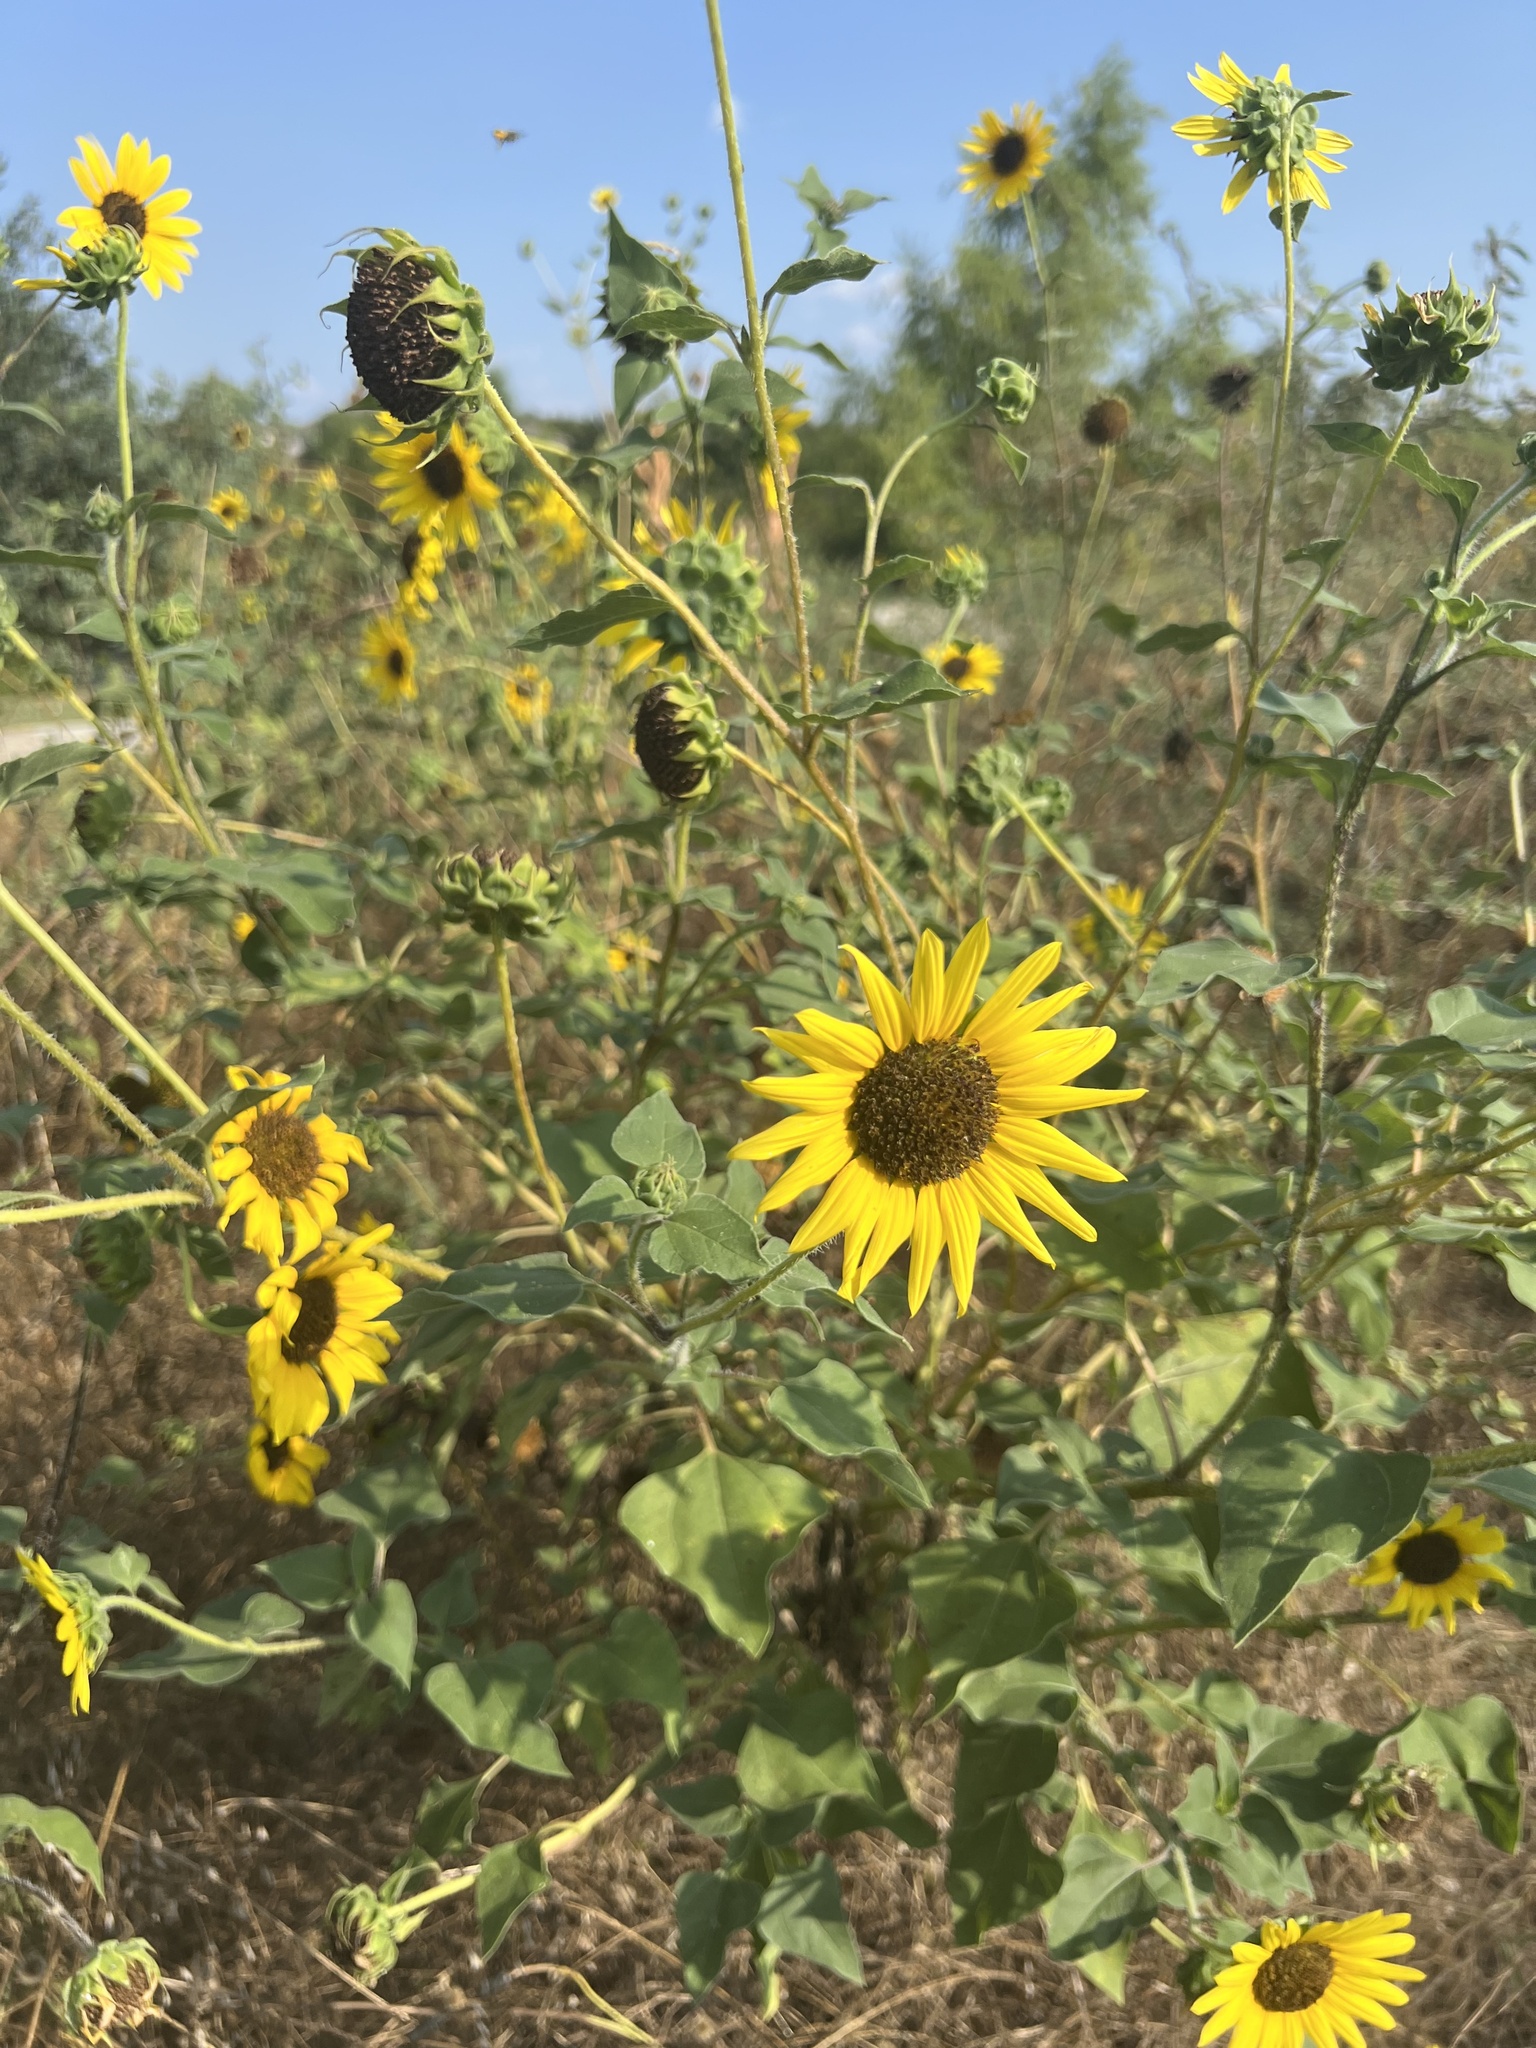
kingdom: Plantae
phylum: Tracheophyta
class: Magnoliopsida
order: Asterales
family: Asteraceae
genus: Helianthus
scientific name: Helianthus annuus
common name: Sunflower
